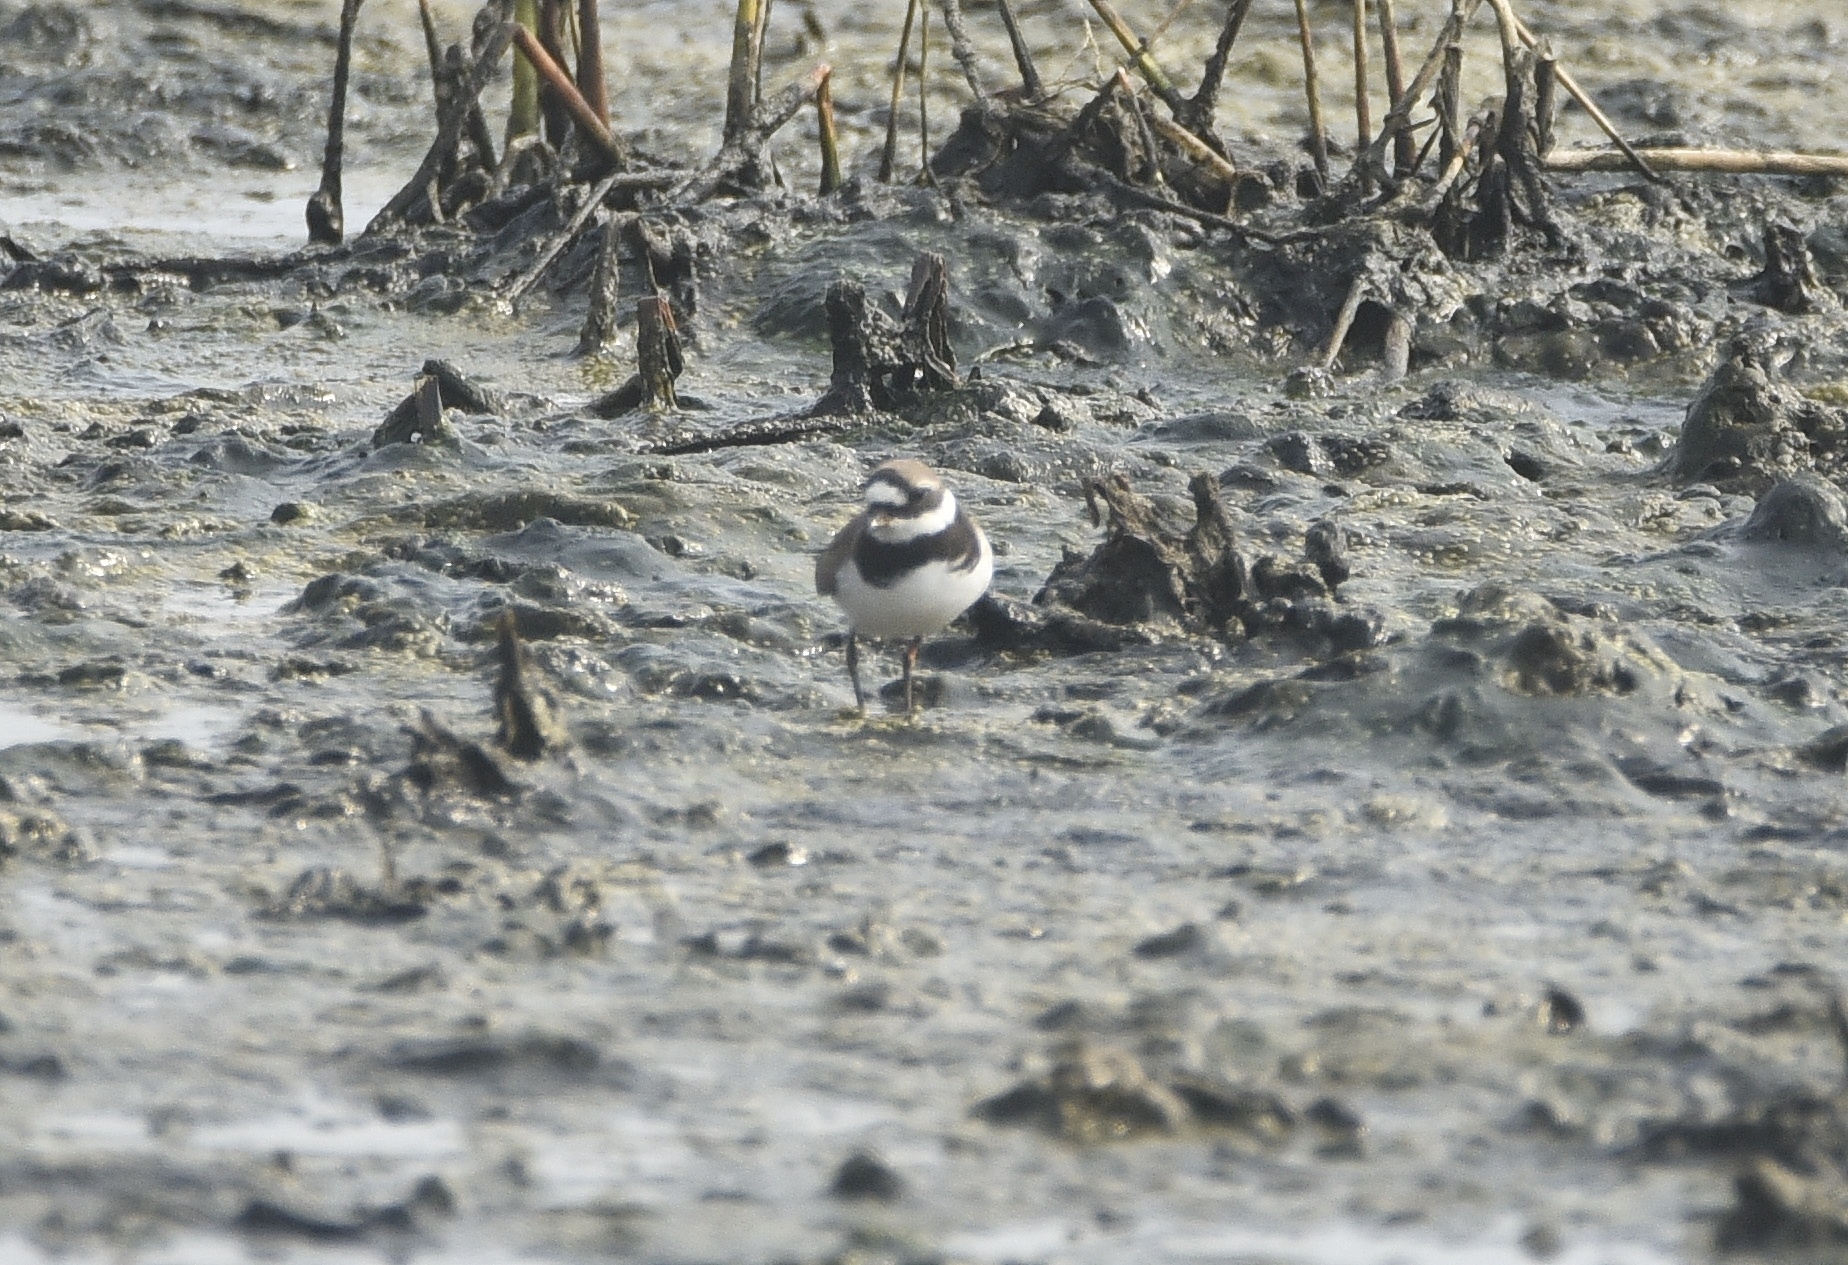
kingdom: Animalia
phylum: Chordata
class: Aves
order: Charadriiformes
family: Charadriidae
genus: Charadrius
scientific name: Charadrius hiaticula
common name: Common ringed plover
